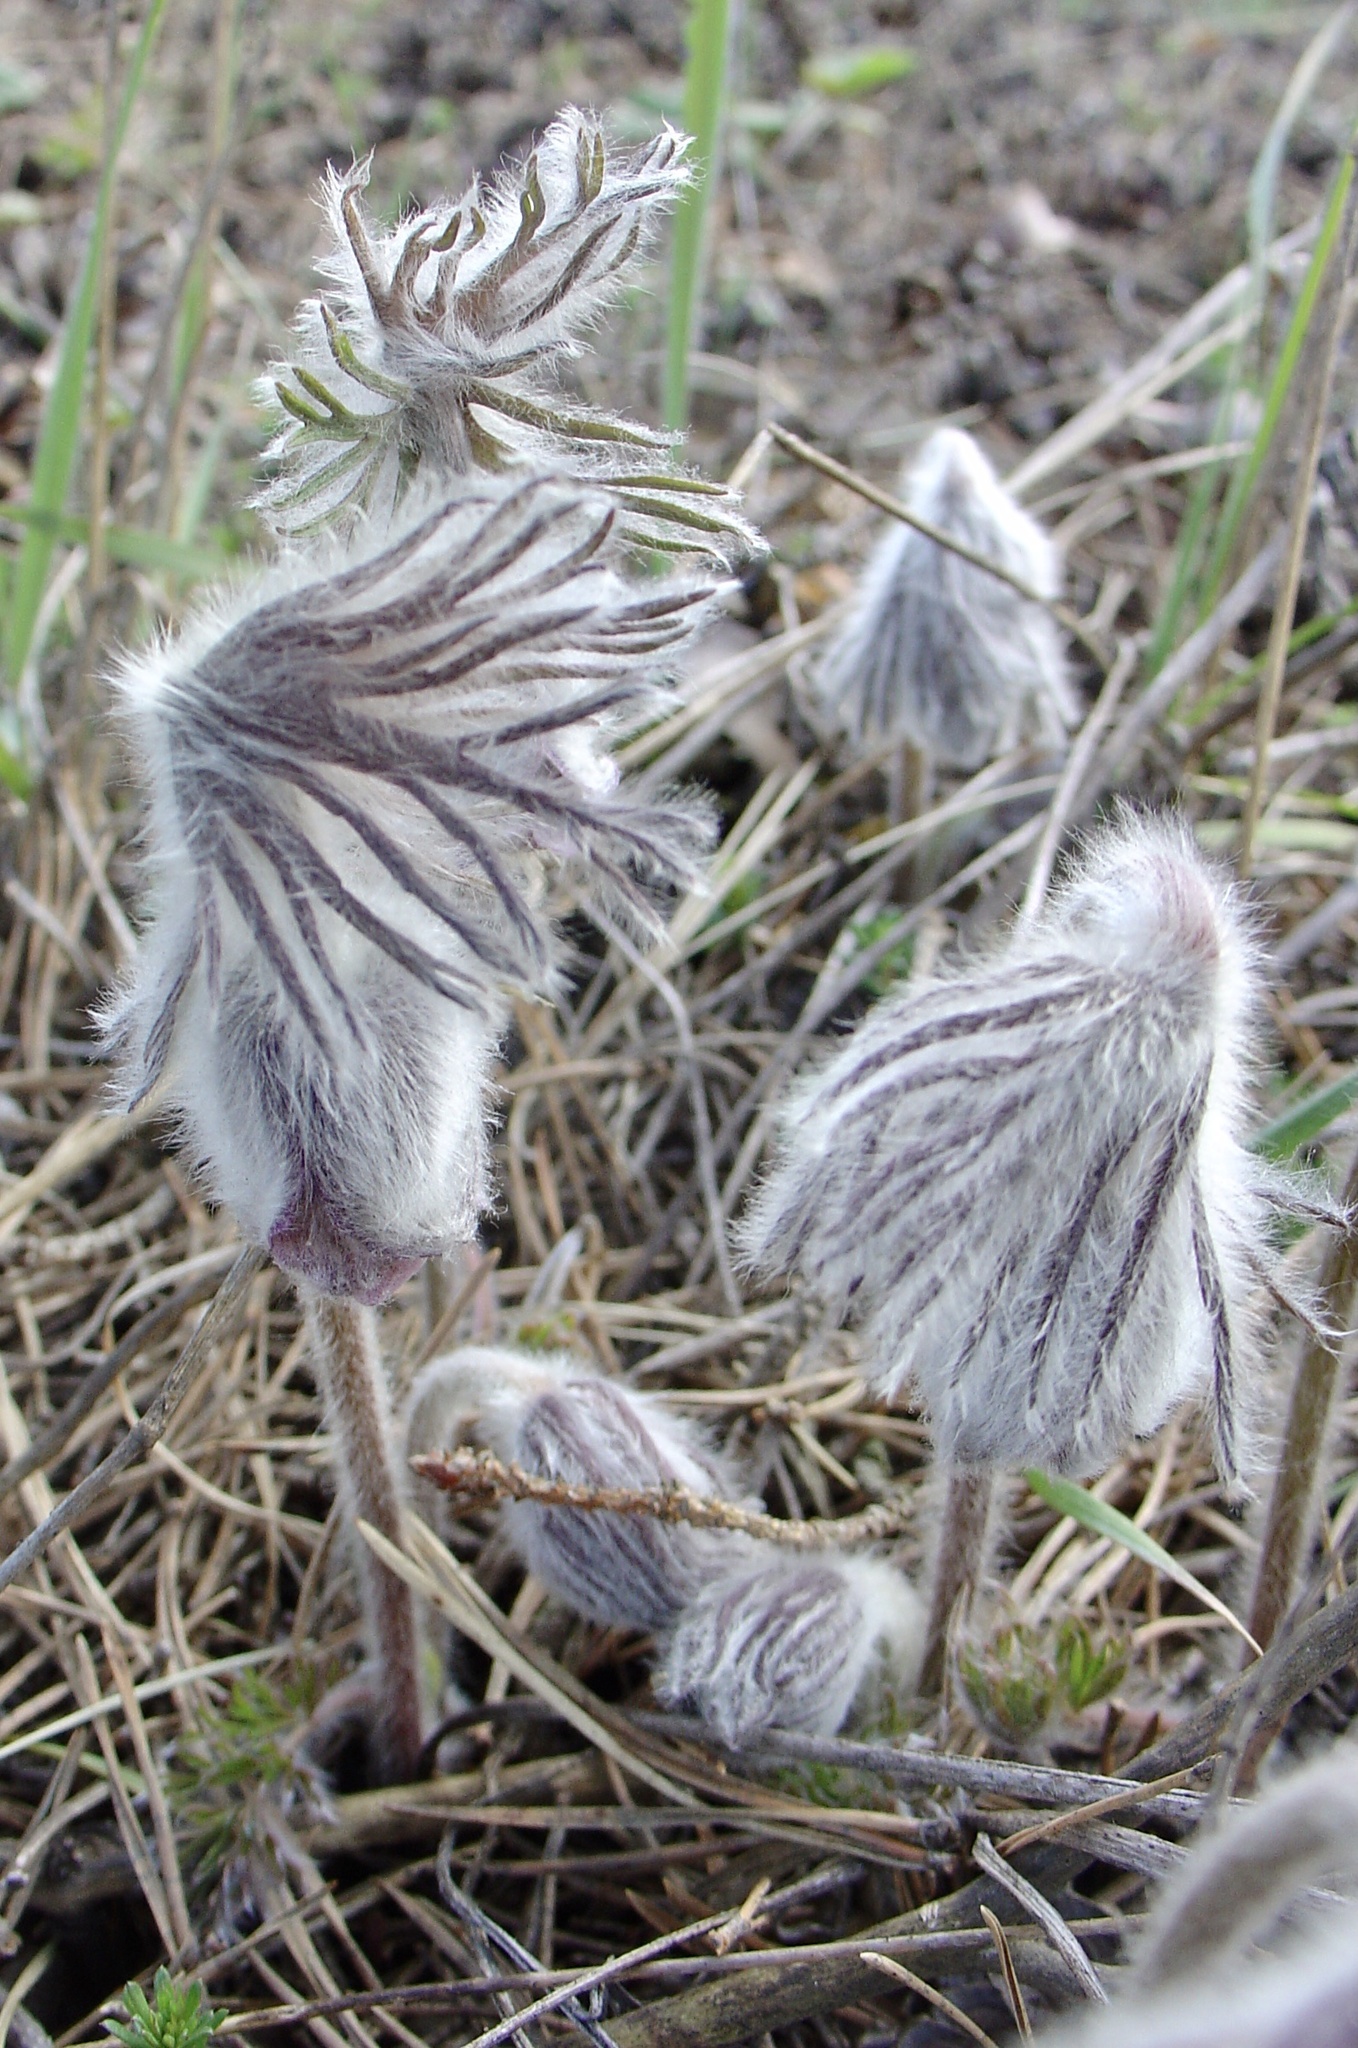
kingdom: Plantae
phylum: Tracheophyta
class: Magnoliopsida
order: Ranunculales
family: Ranunculaceae
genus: Pulsatilla
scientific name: Pulsatilla pratensis
